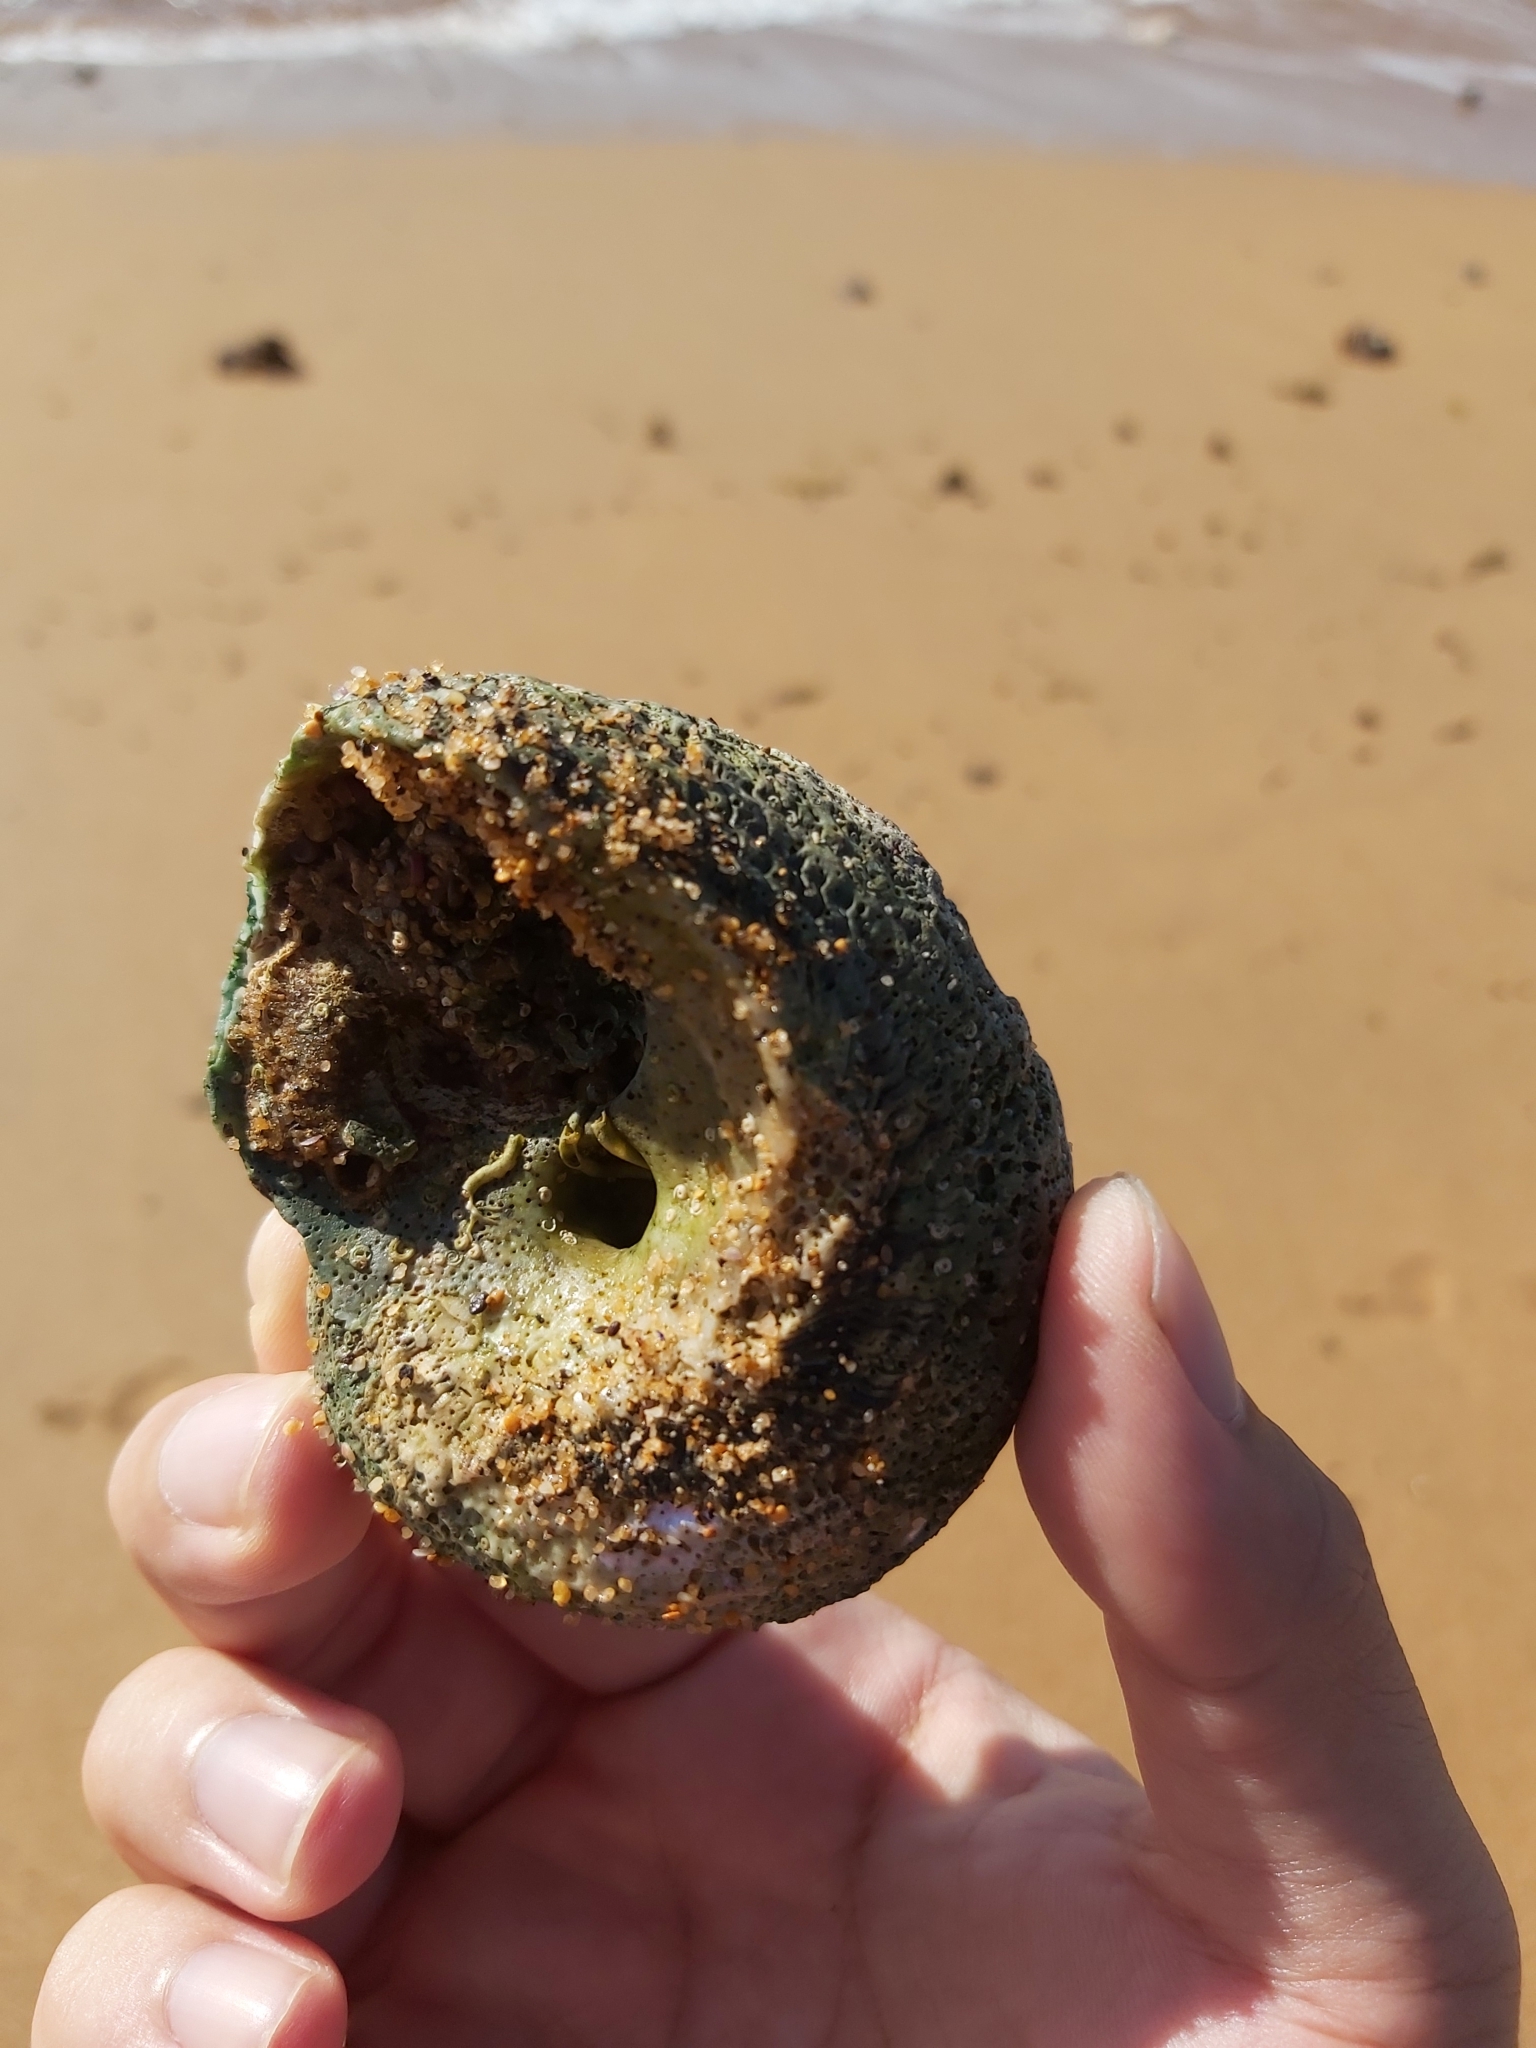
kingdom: Animalia
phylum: Mollusca
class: Gastropoda
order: Trochida
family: Turbinidae
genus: Lunella
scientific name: Lunella torquata
